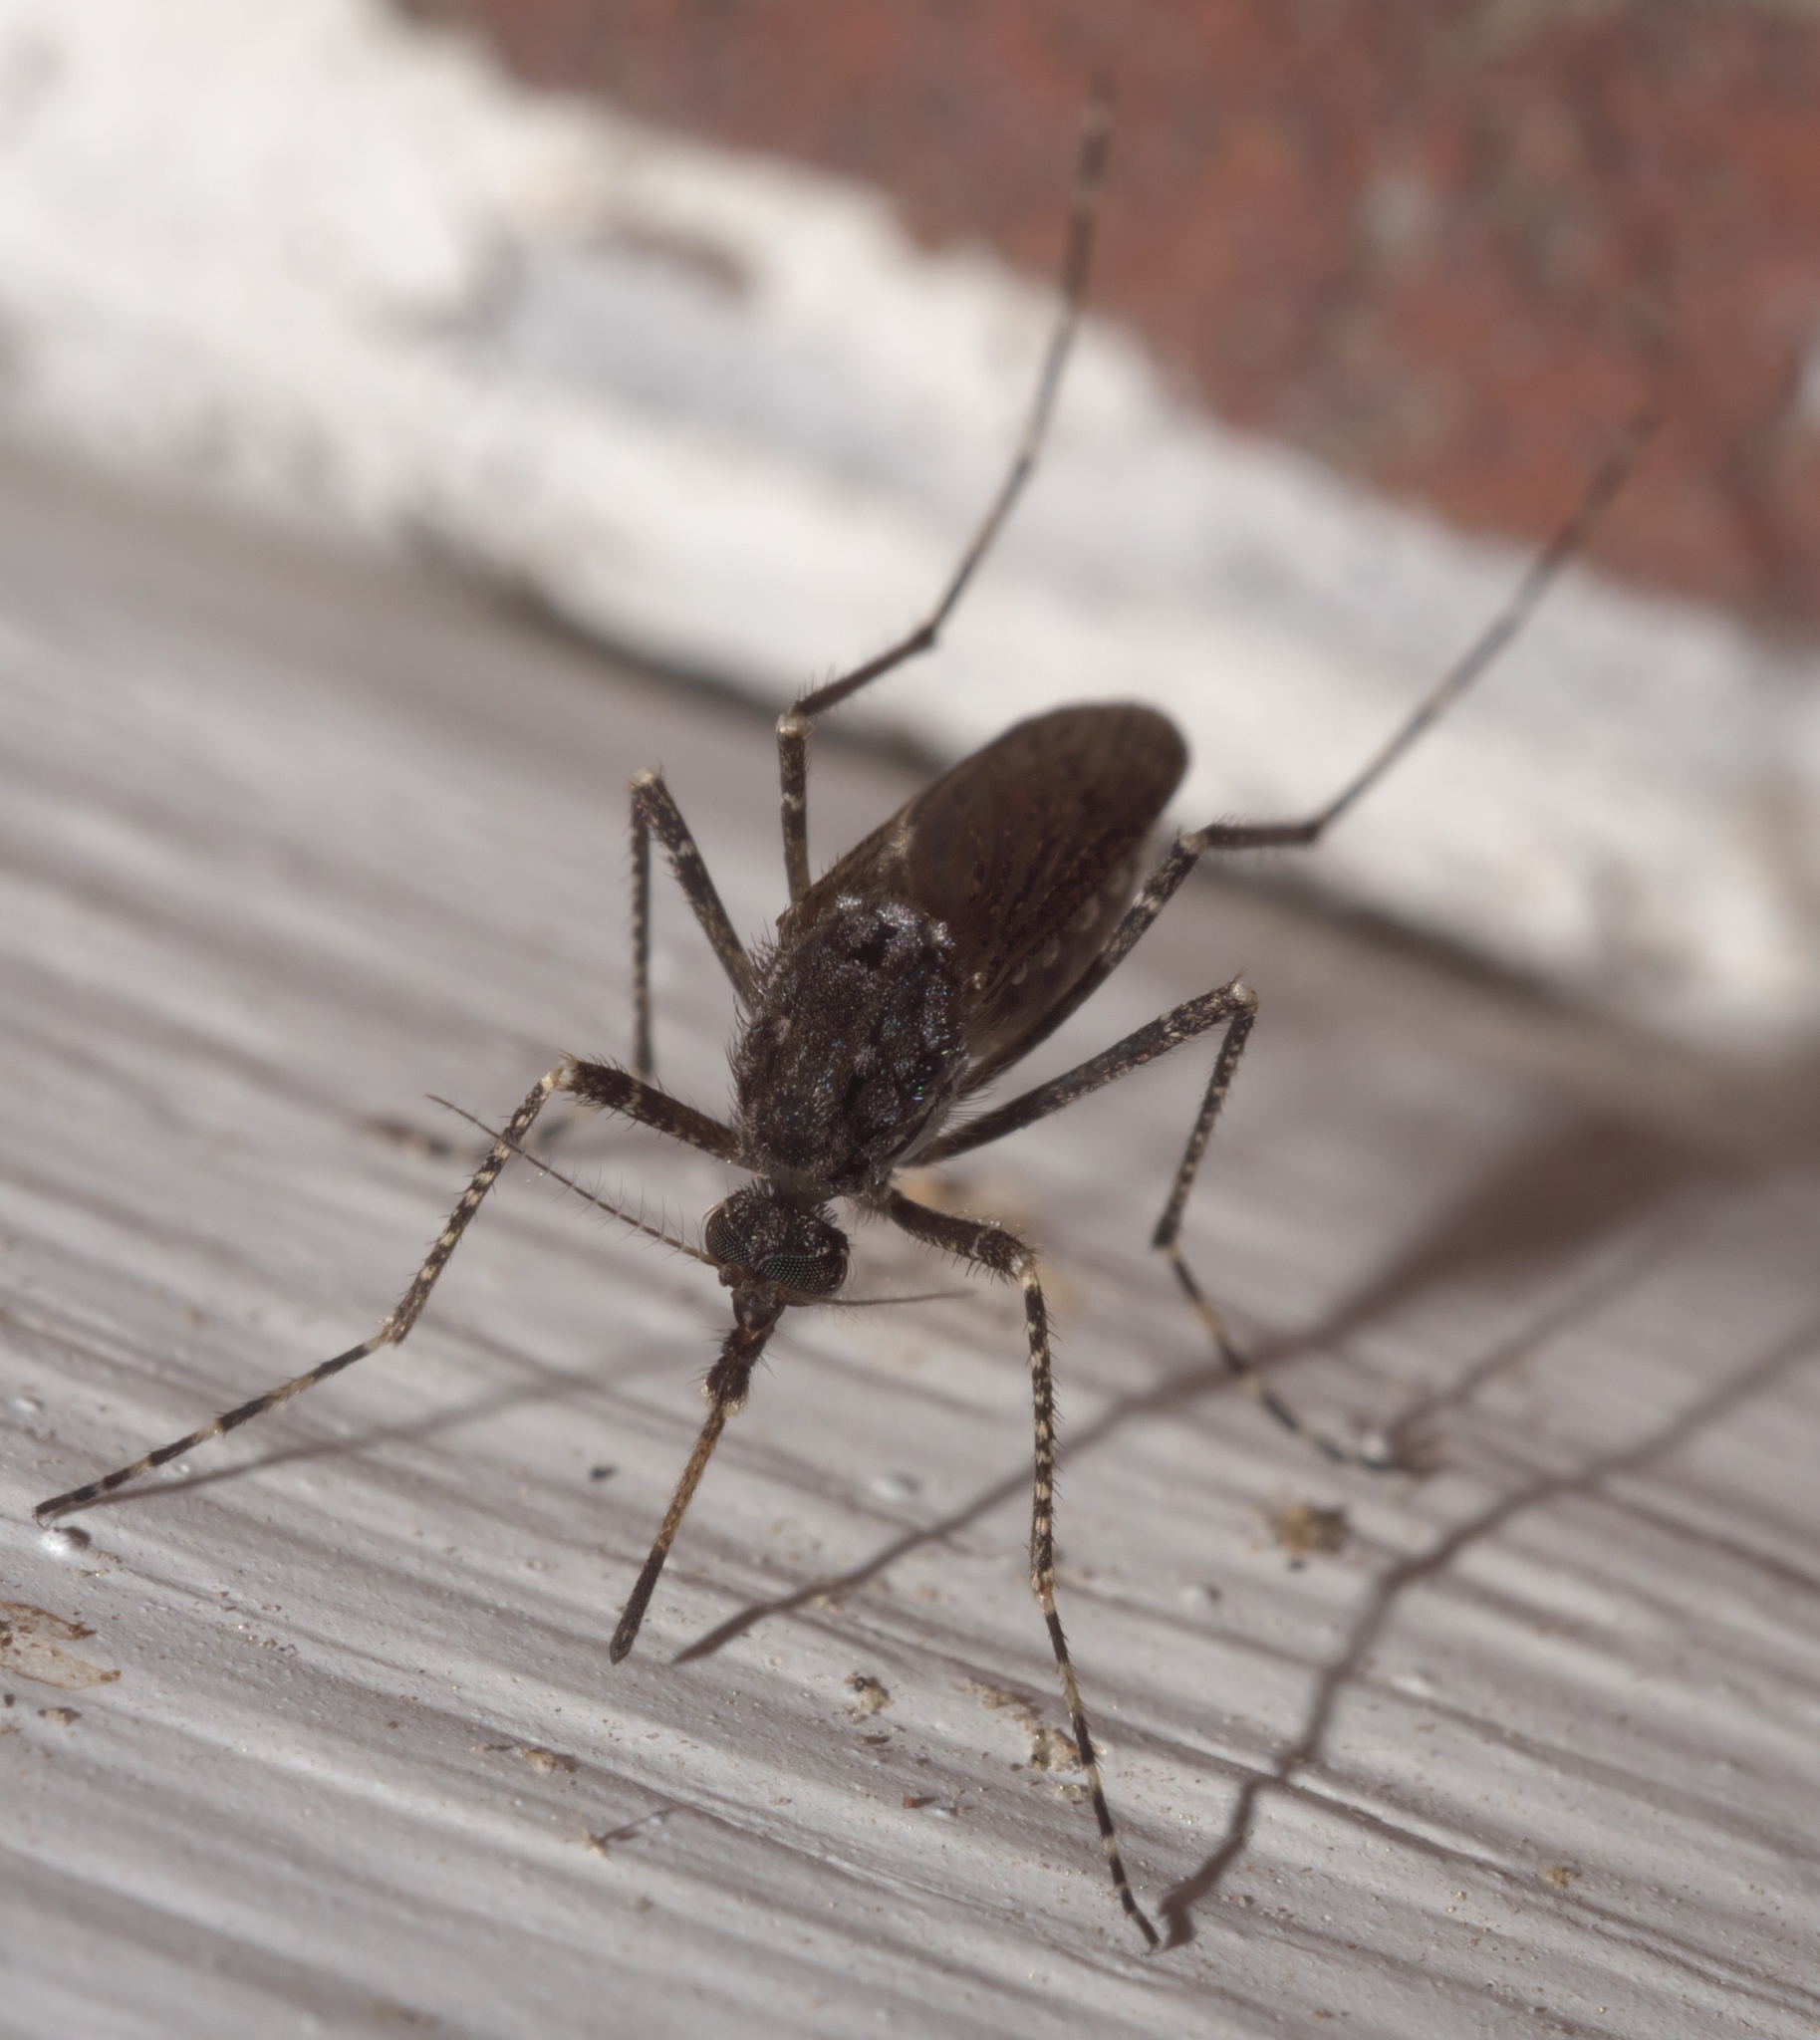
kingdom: Animalia
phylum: Arthropoda
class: Insecta
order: Diptera
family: Culicidae
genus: Psorophora
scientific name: Psorophora columbiae
